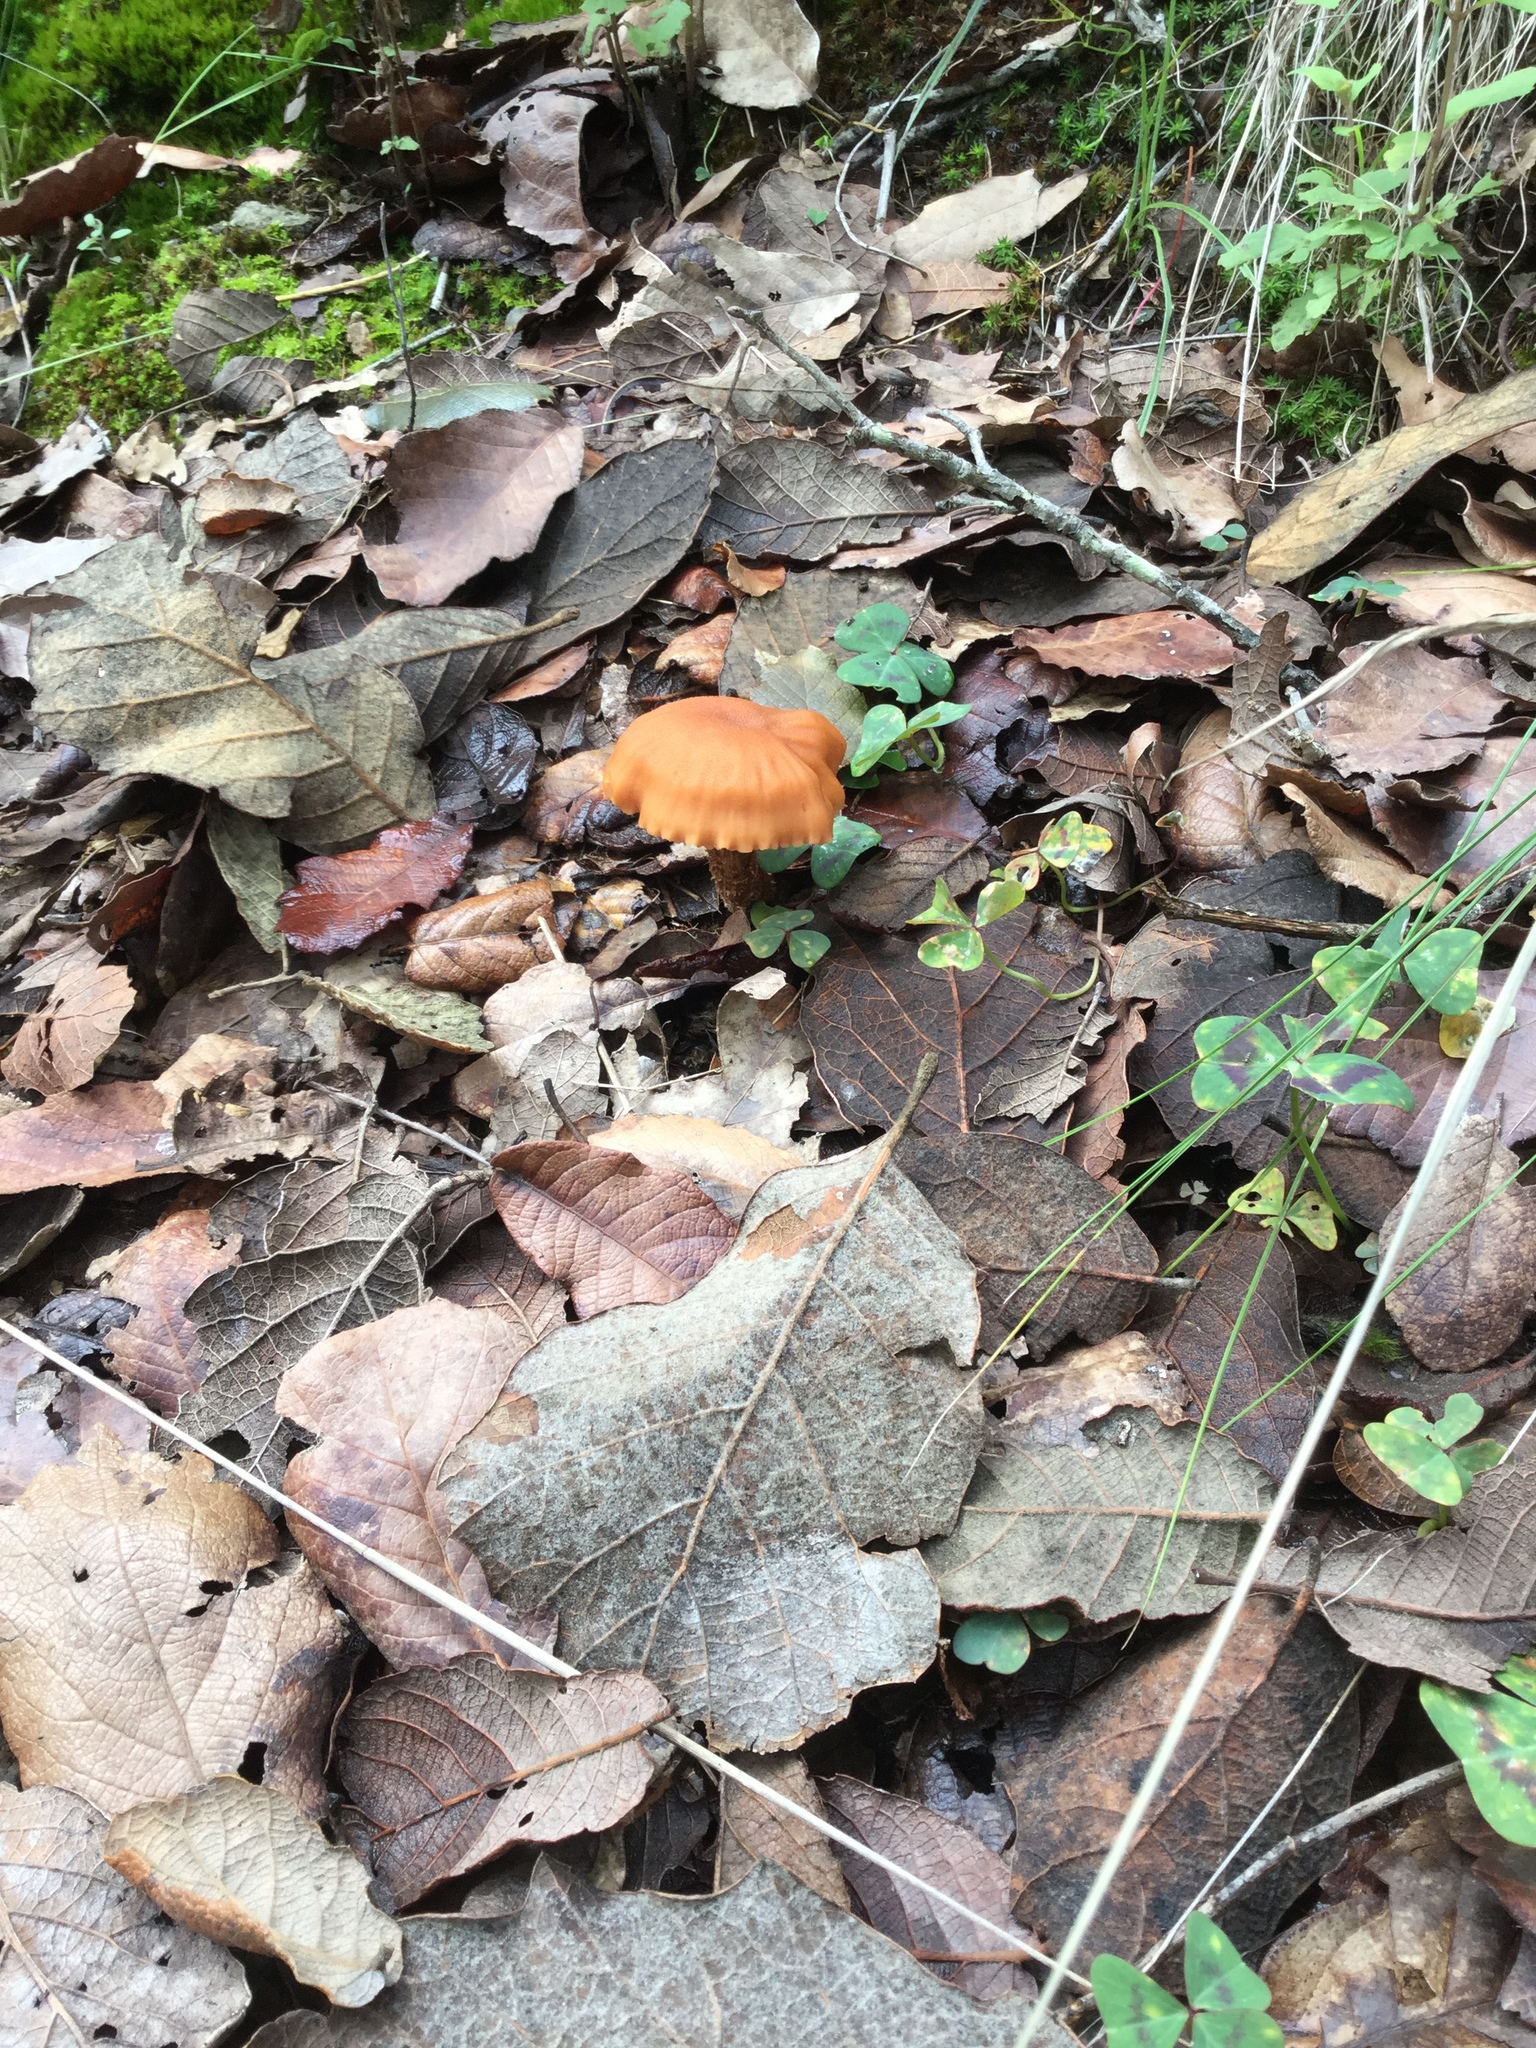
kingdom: Fungi
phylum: Basidiomycota
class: Agaricomycetes
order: Agaricales
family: Hydnangiaceae
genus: Laccaria
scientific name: Laccaria squarrosa
